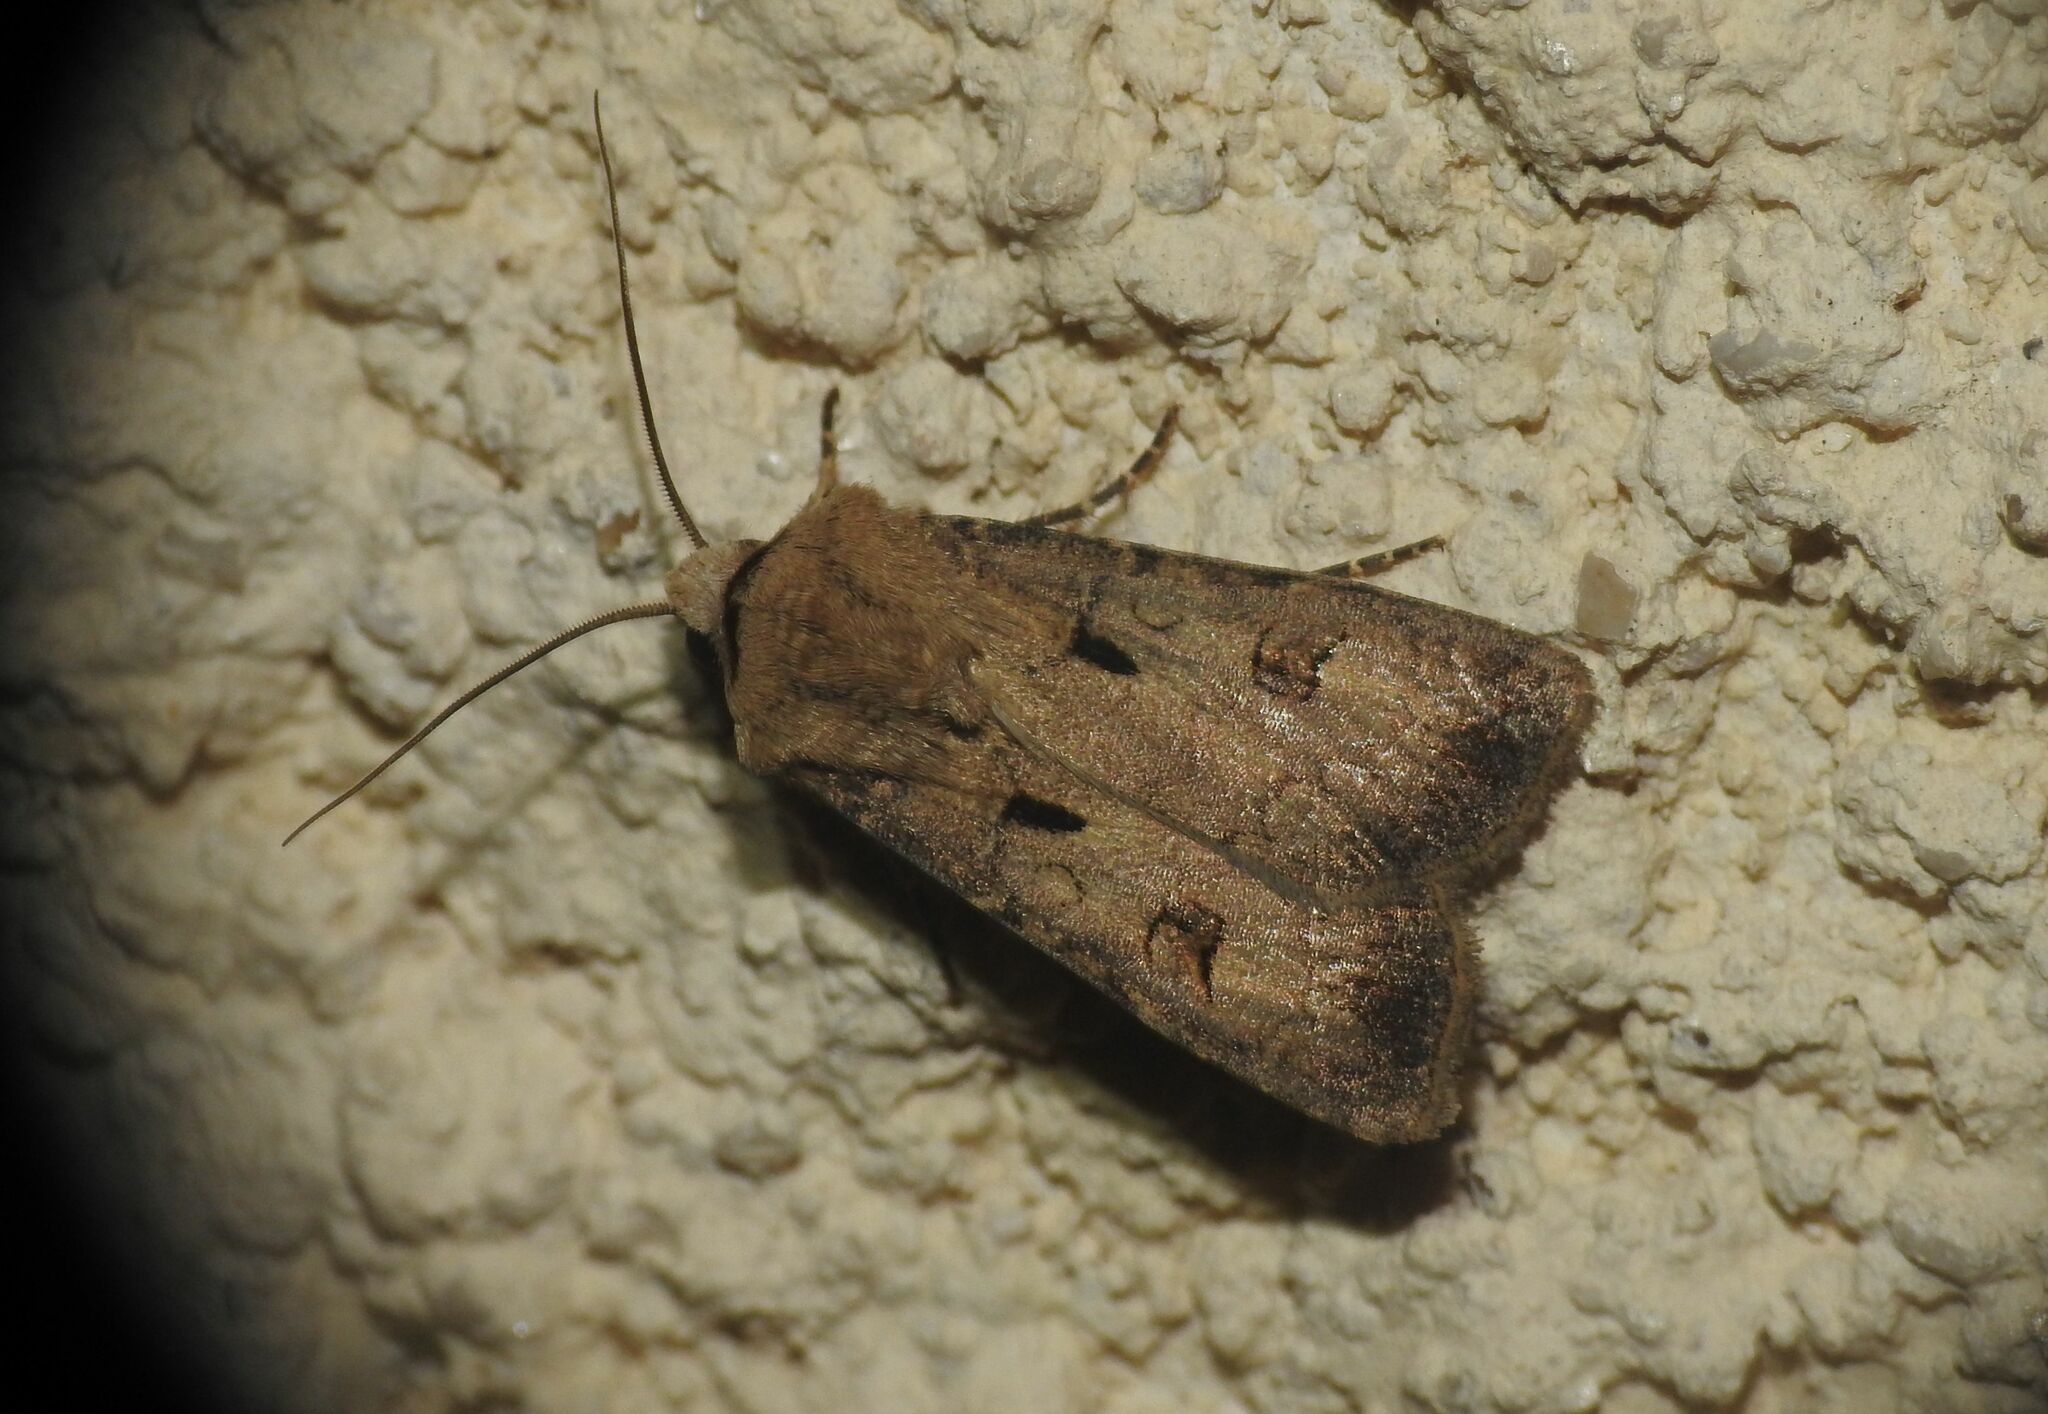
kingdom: Animalia
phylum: Arthropoda
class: Insecta
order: Lepidoptera
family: Noctuidae
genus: Agrotis
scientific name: Agrotis exclamationis
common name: Heart and dart
